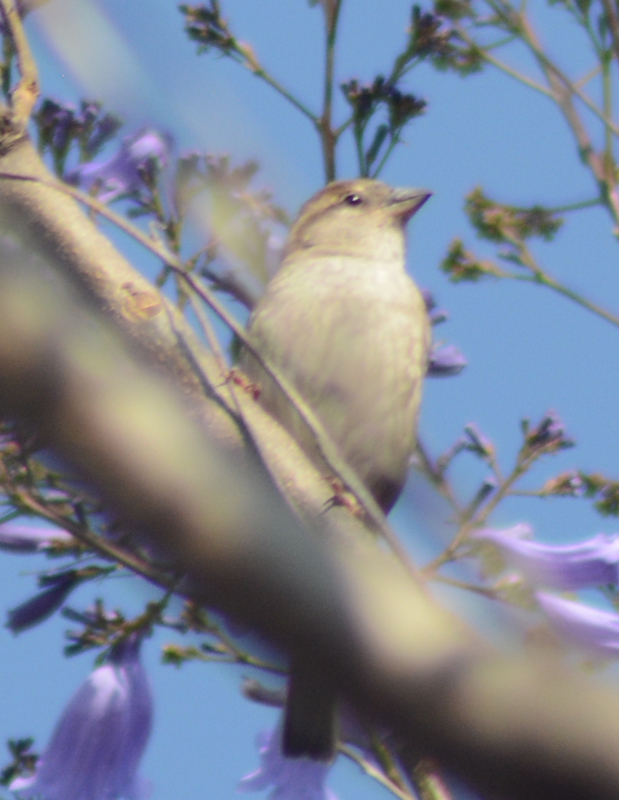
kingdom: Animalia
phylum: Chordata
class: Aves
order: Passeriformes
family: Passeridae
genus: Passer
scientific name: Passer domesticus
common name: House sparrow
